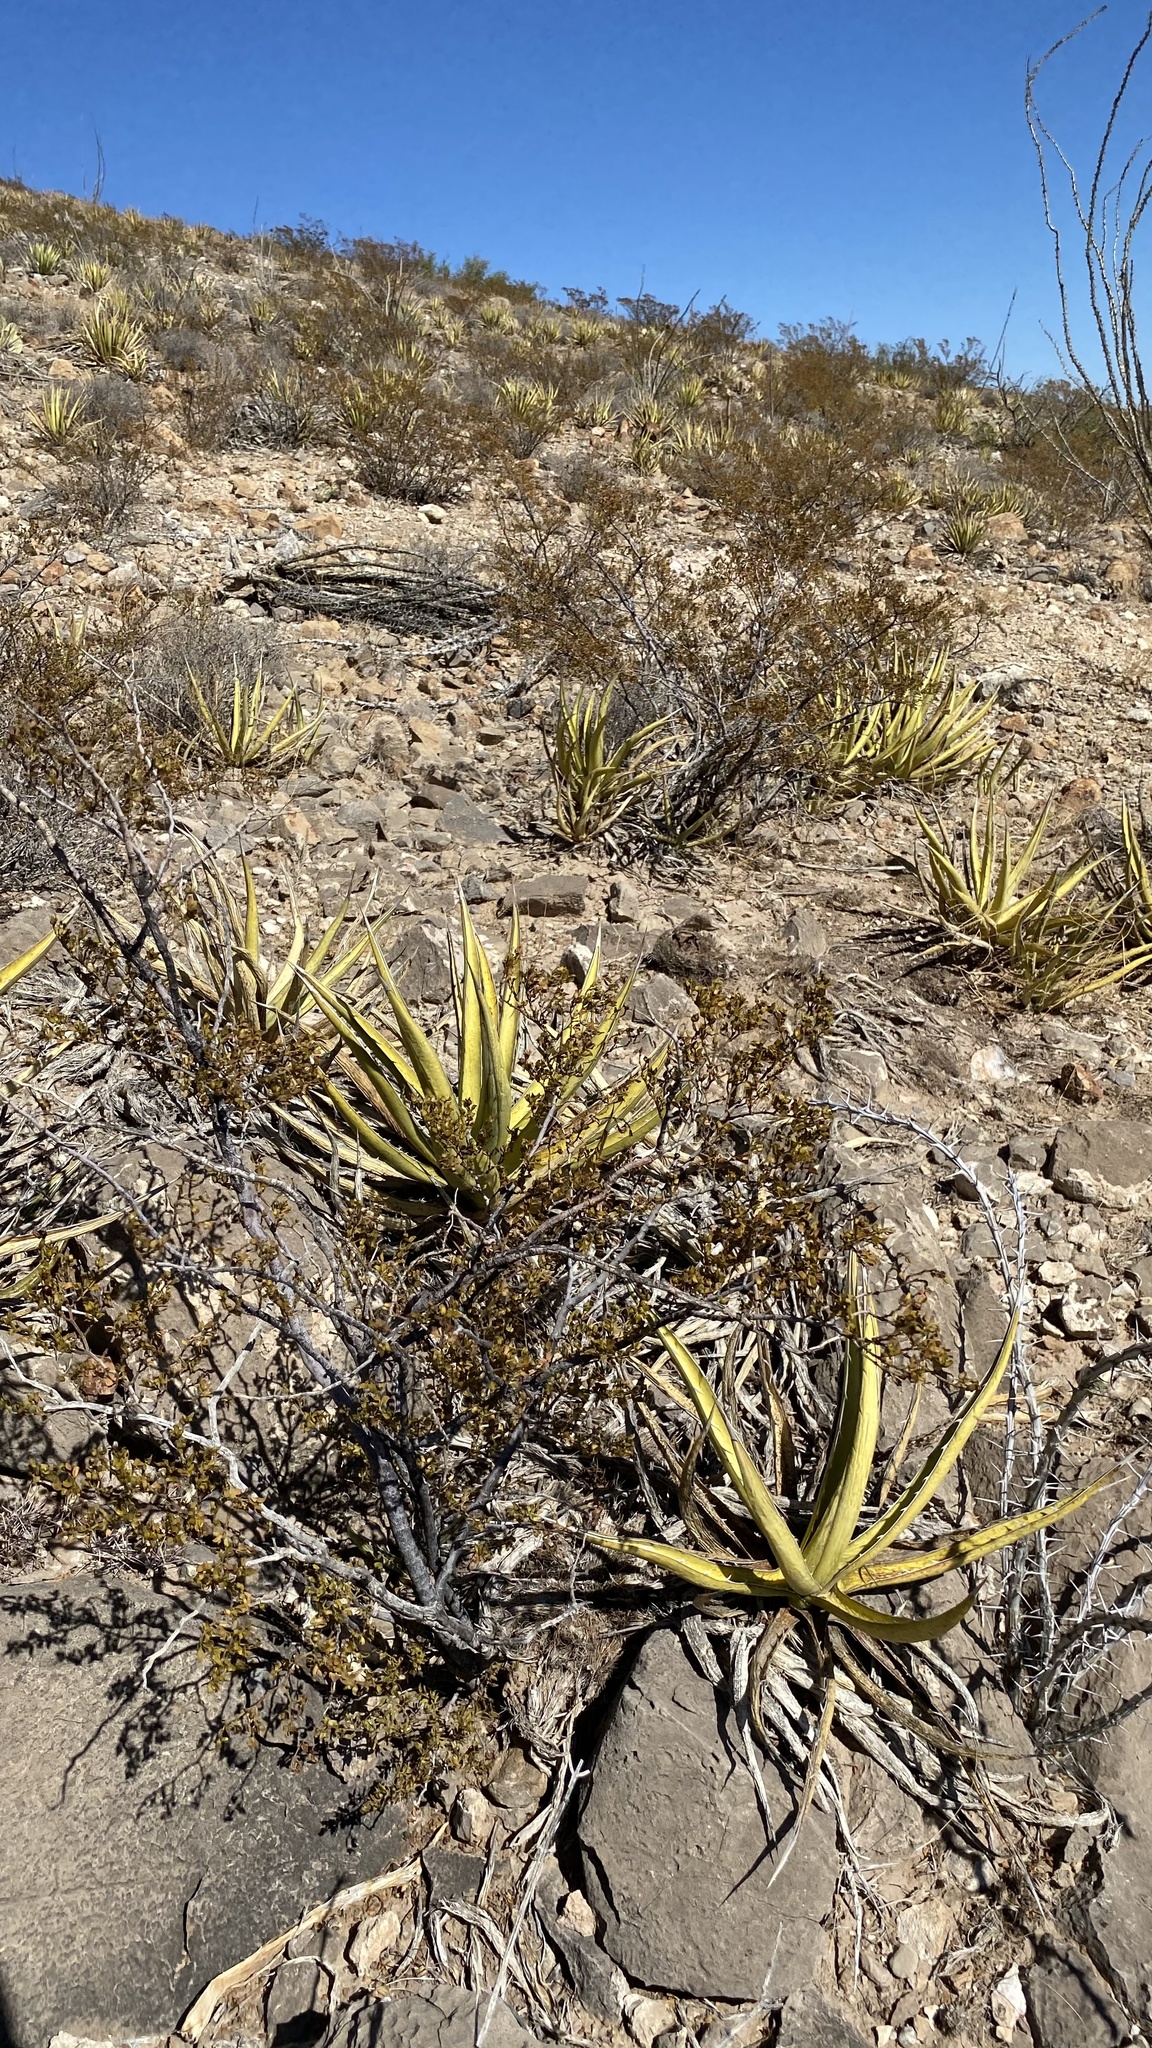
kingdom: Plantae
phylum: Tracheophyta
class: Liliopsida
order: Asparagales
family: Asparagaceae
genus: Agave
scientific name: Agave lechuguilla
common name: Lecheguilla agave
